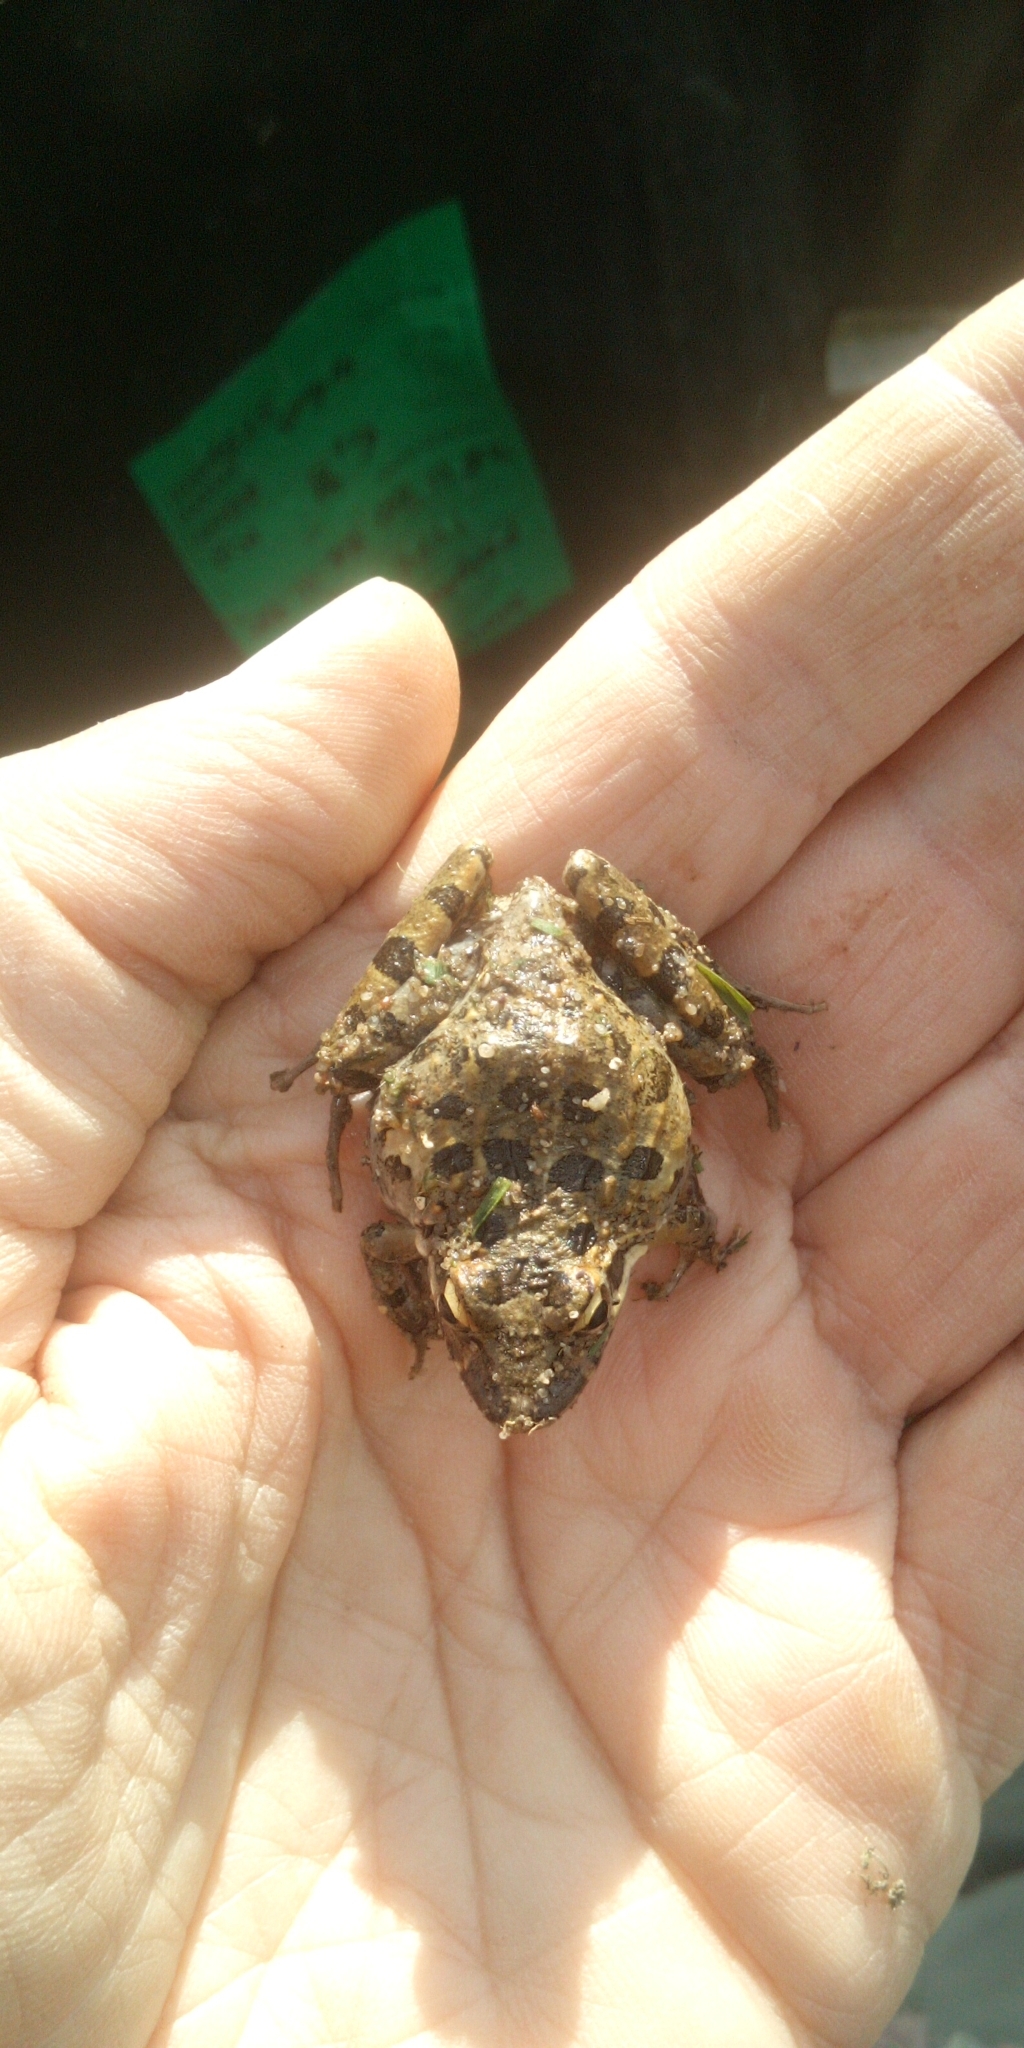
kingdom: Animalia
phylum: Chordata
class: Amphibia
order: Anura
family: Pyxicephalidae
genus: Strongylopus
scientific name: Strongylopus grayii
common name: Gray's stream frog
